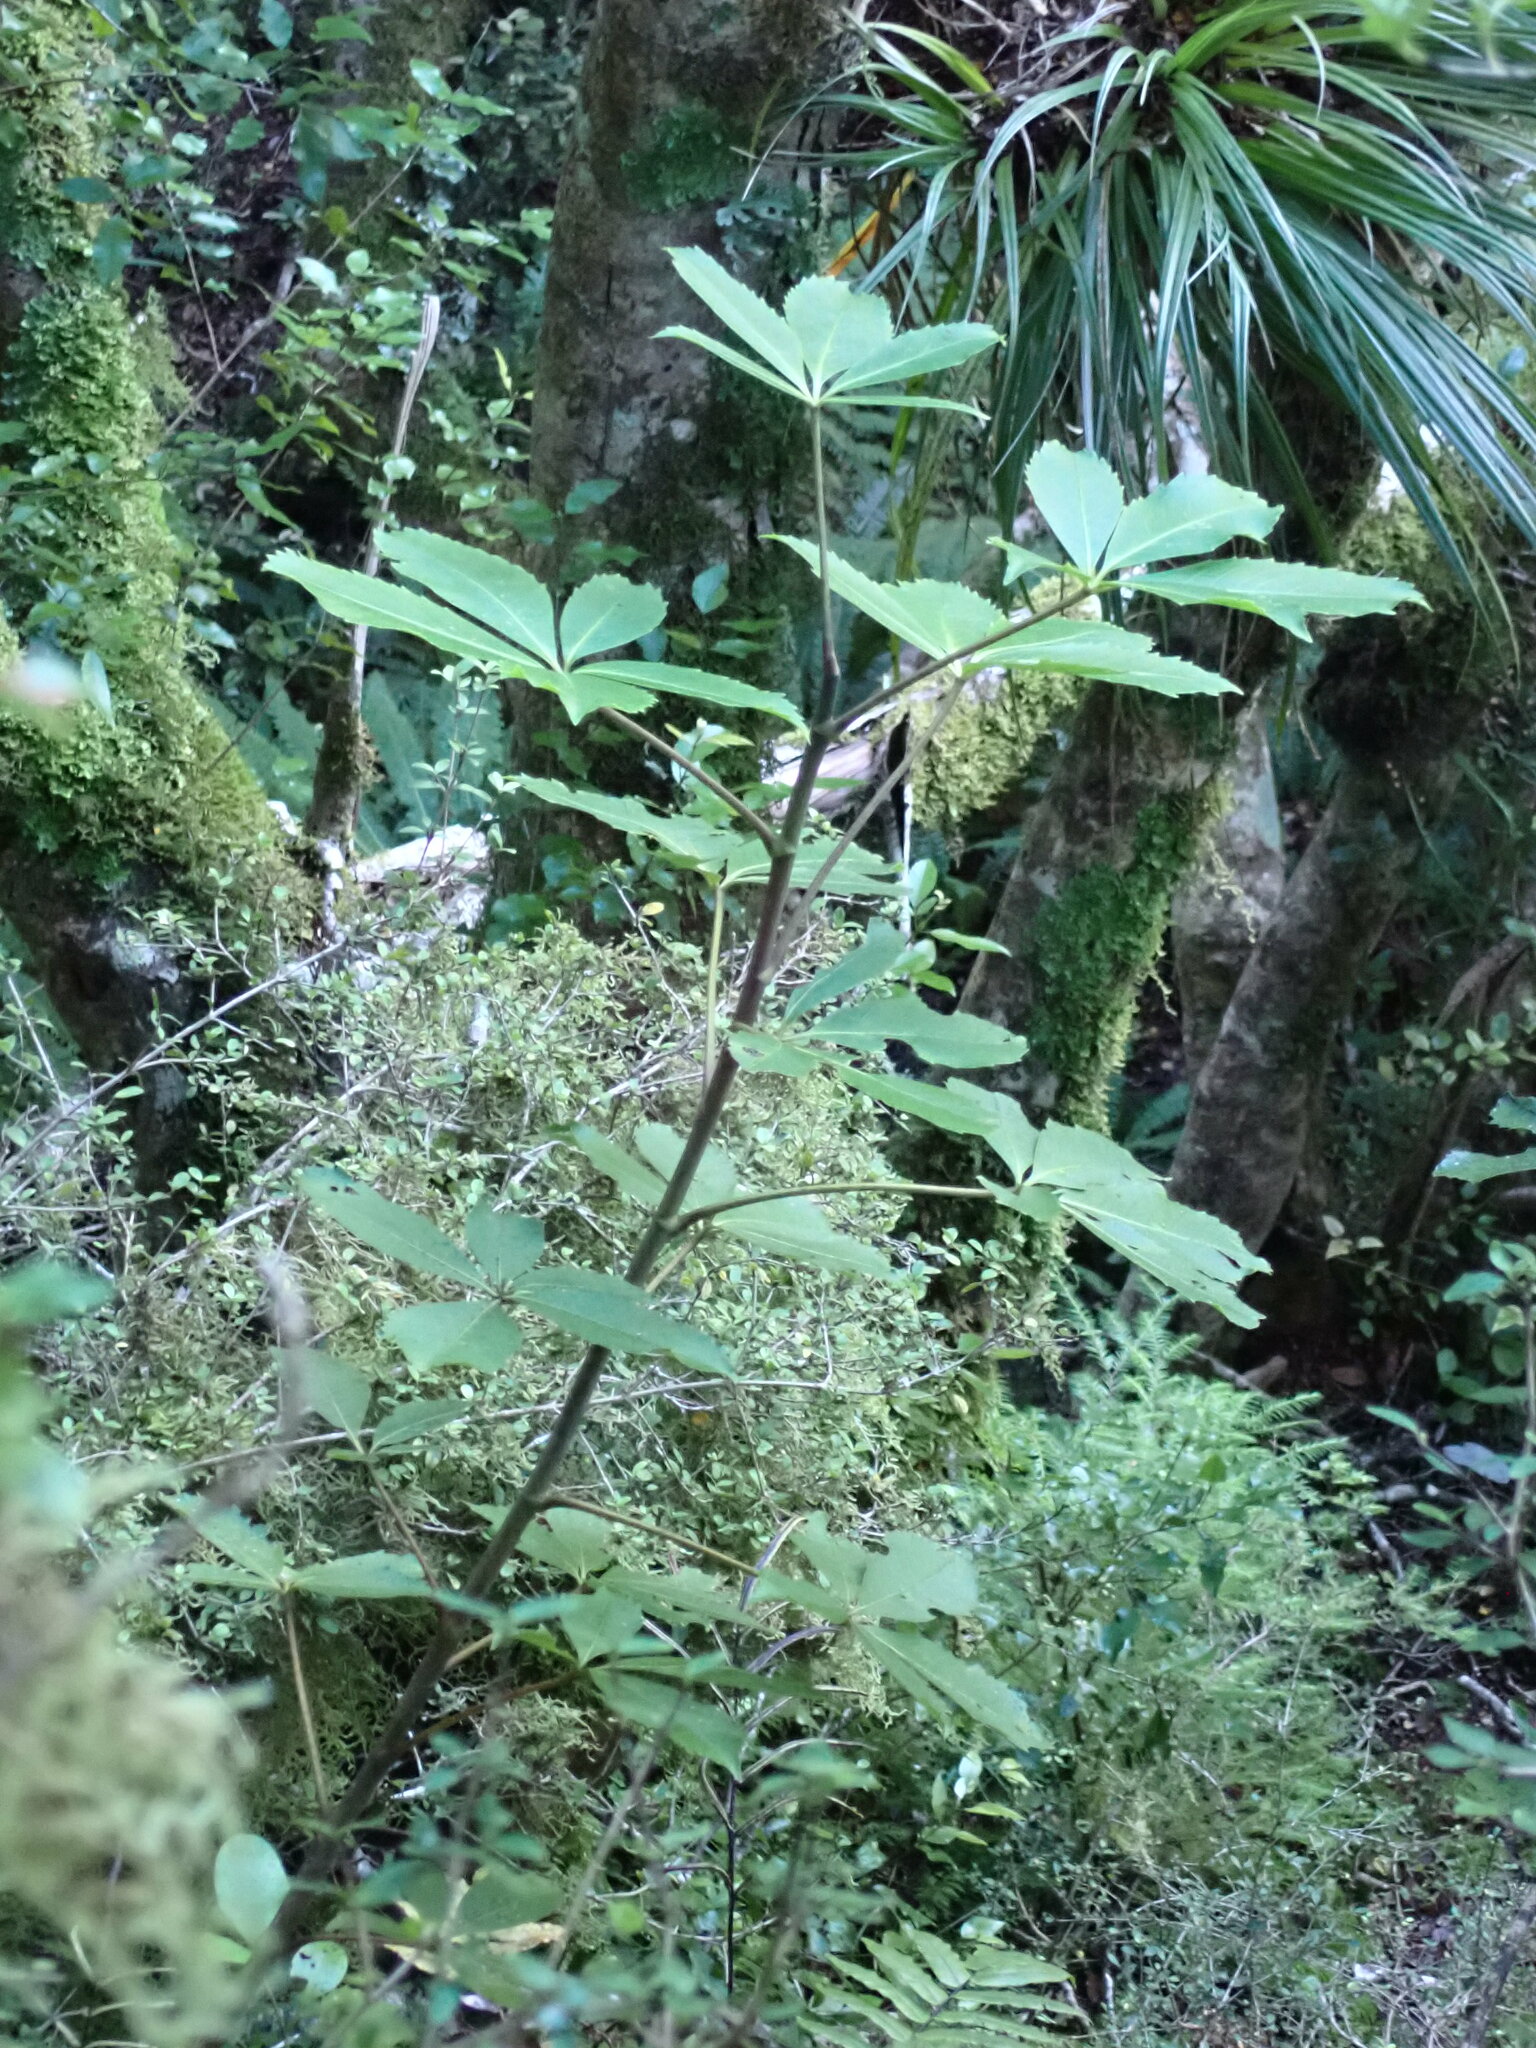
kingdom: Plantae
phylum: Tracheophyta
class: Magnoliopsida
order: Apiales
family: Araliaceae
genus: Neopanax
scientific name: Neopanax colensoi
